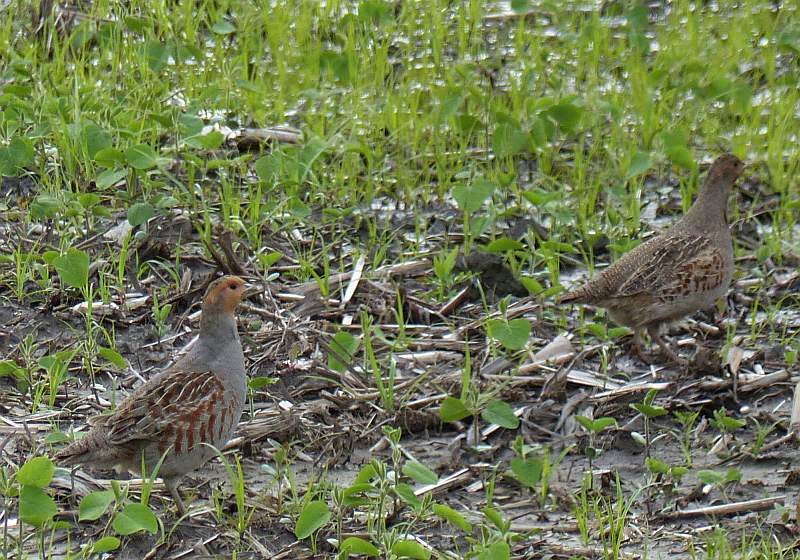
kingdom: Animalia
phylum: Chordata
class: Aves
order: Galliformes
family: Phasianidae
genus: Perdix
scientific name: Perdix perdix
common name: Grey partridge
